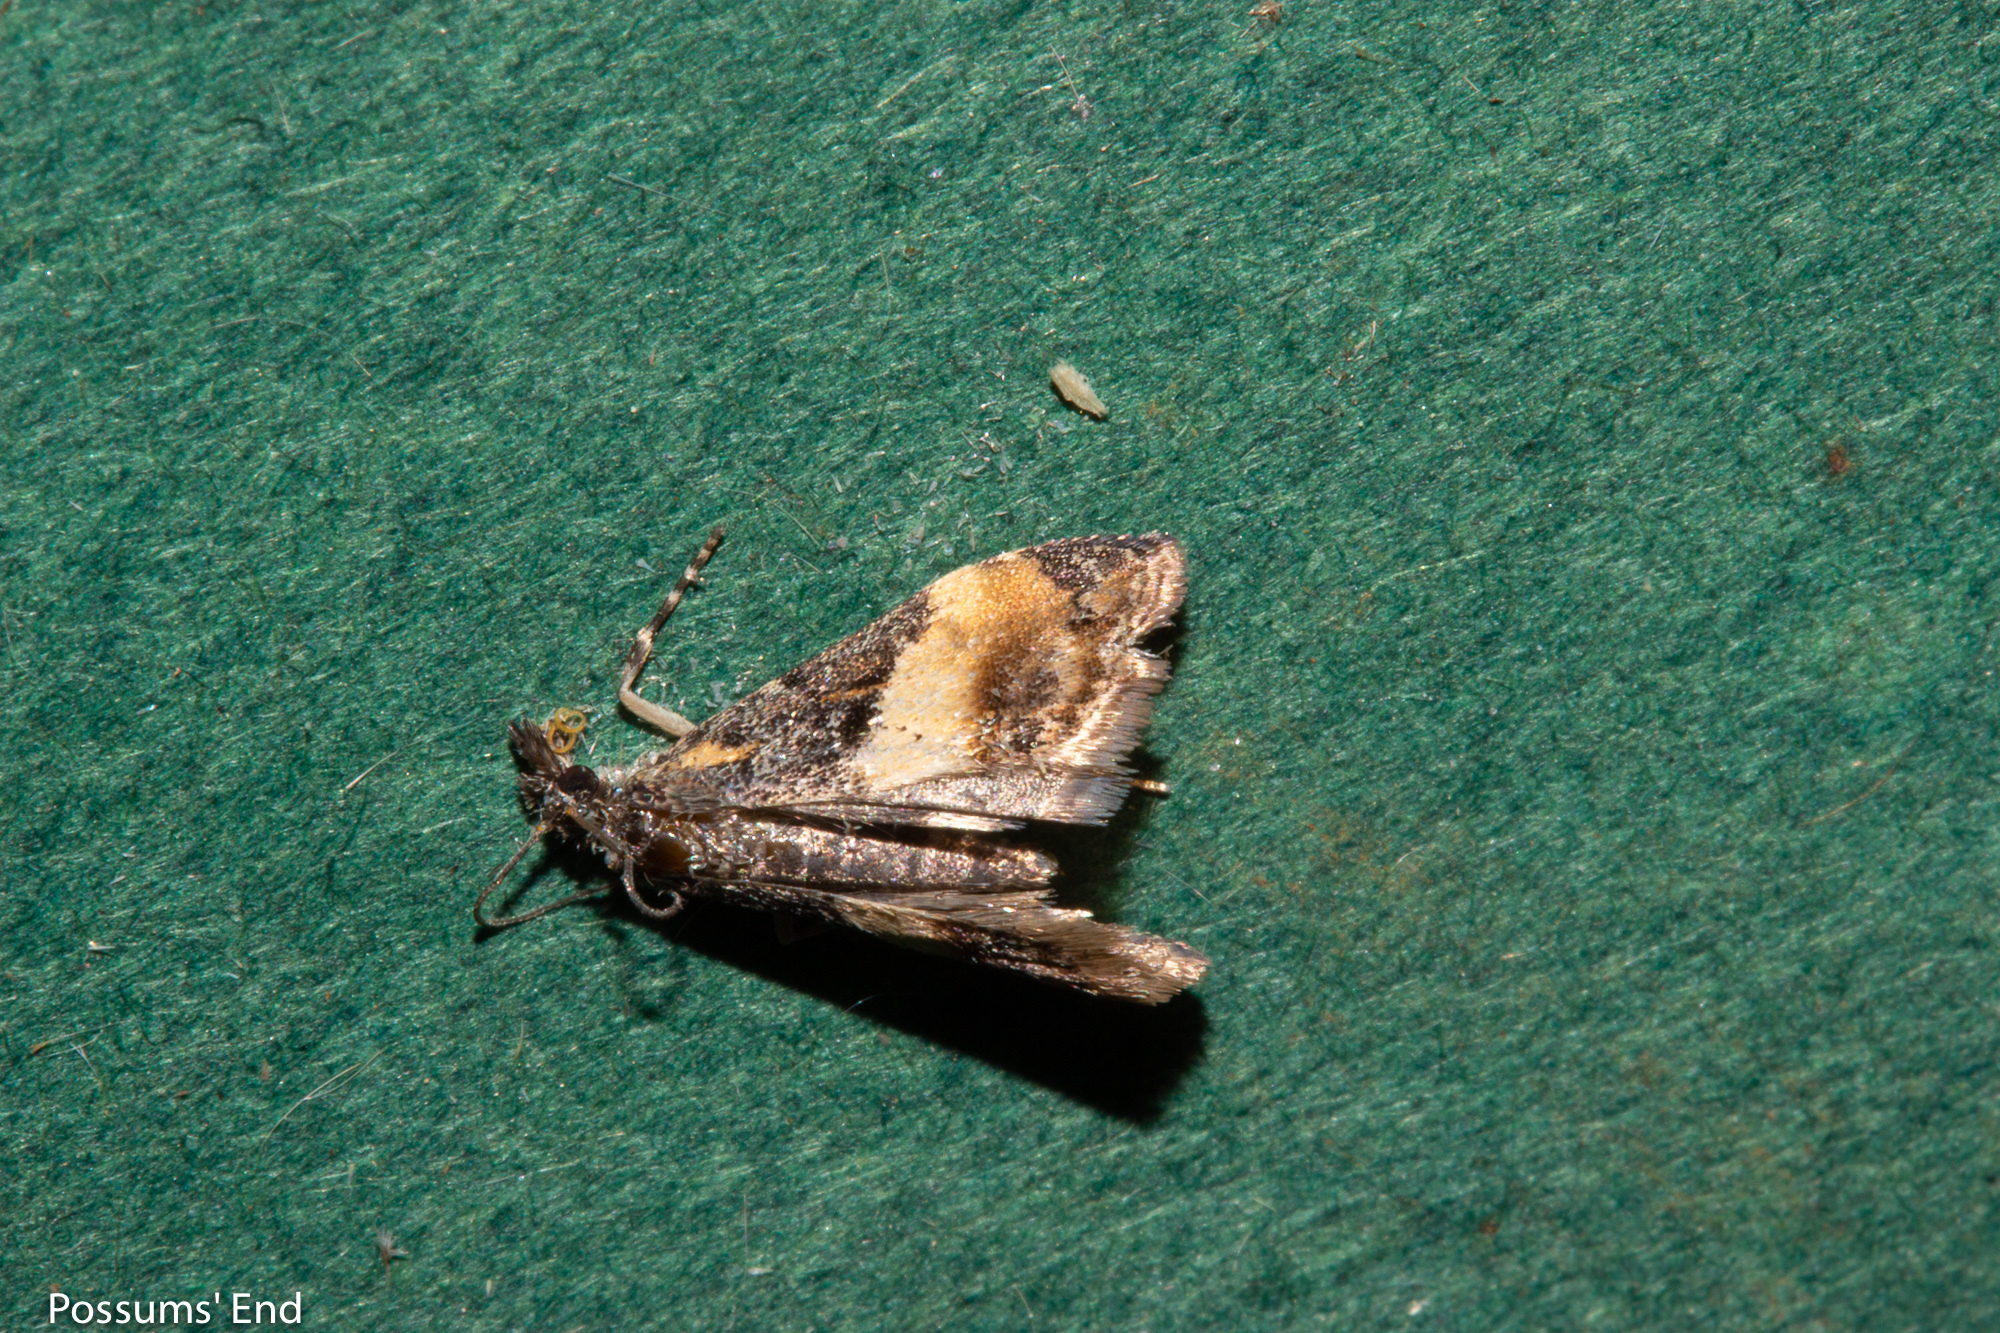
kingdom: Animalia
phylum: Arthropoda
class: Insecta
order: Lepidoptera
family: Crambidae
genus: Eudonia
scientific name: Eudonia chlamydota
